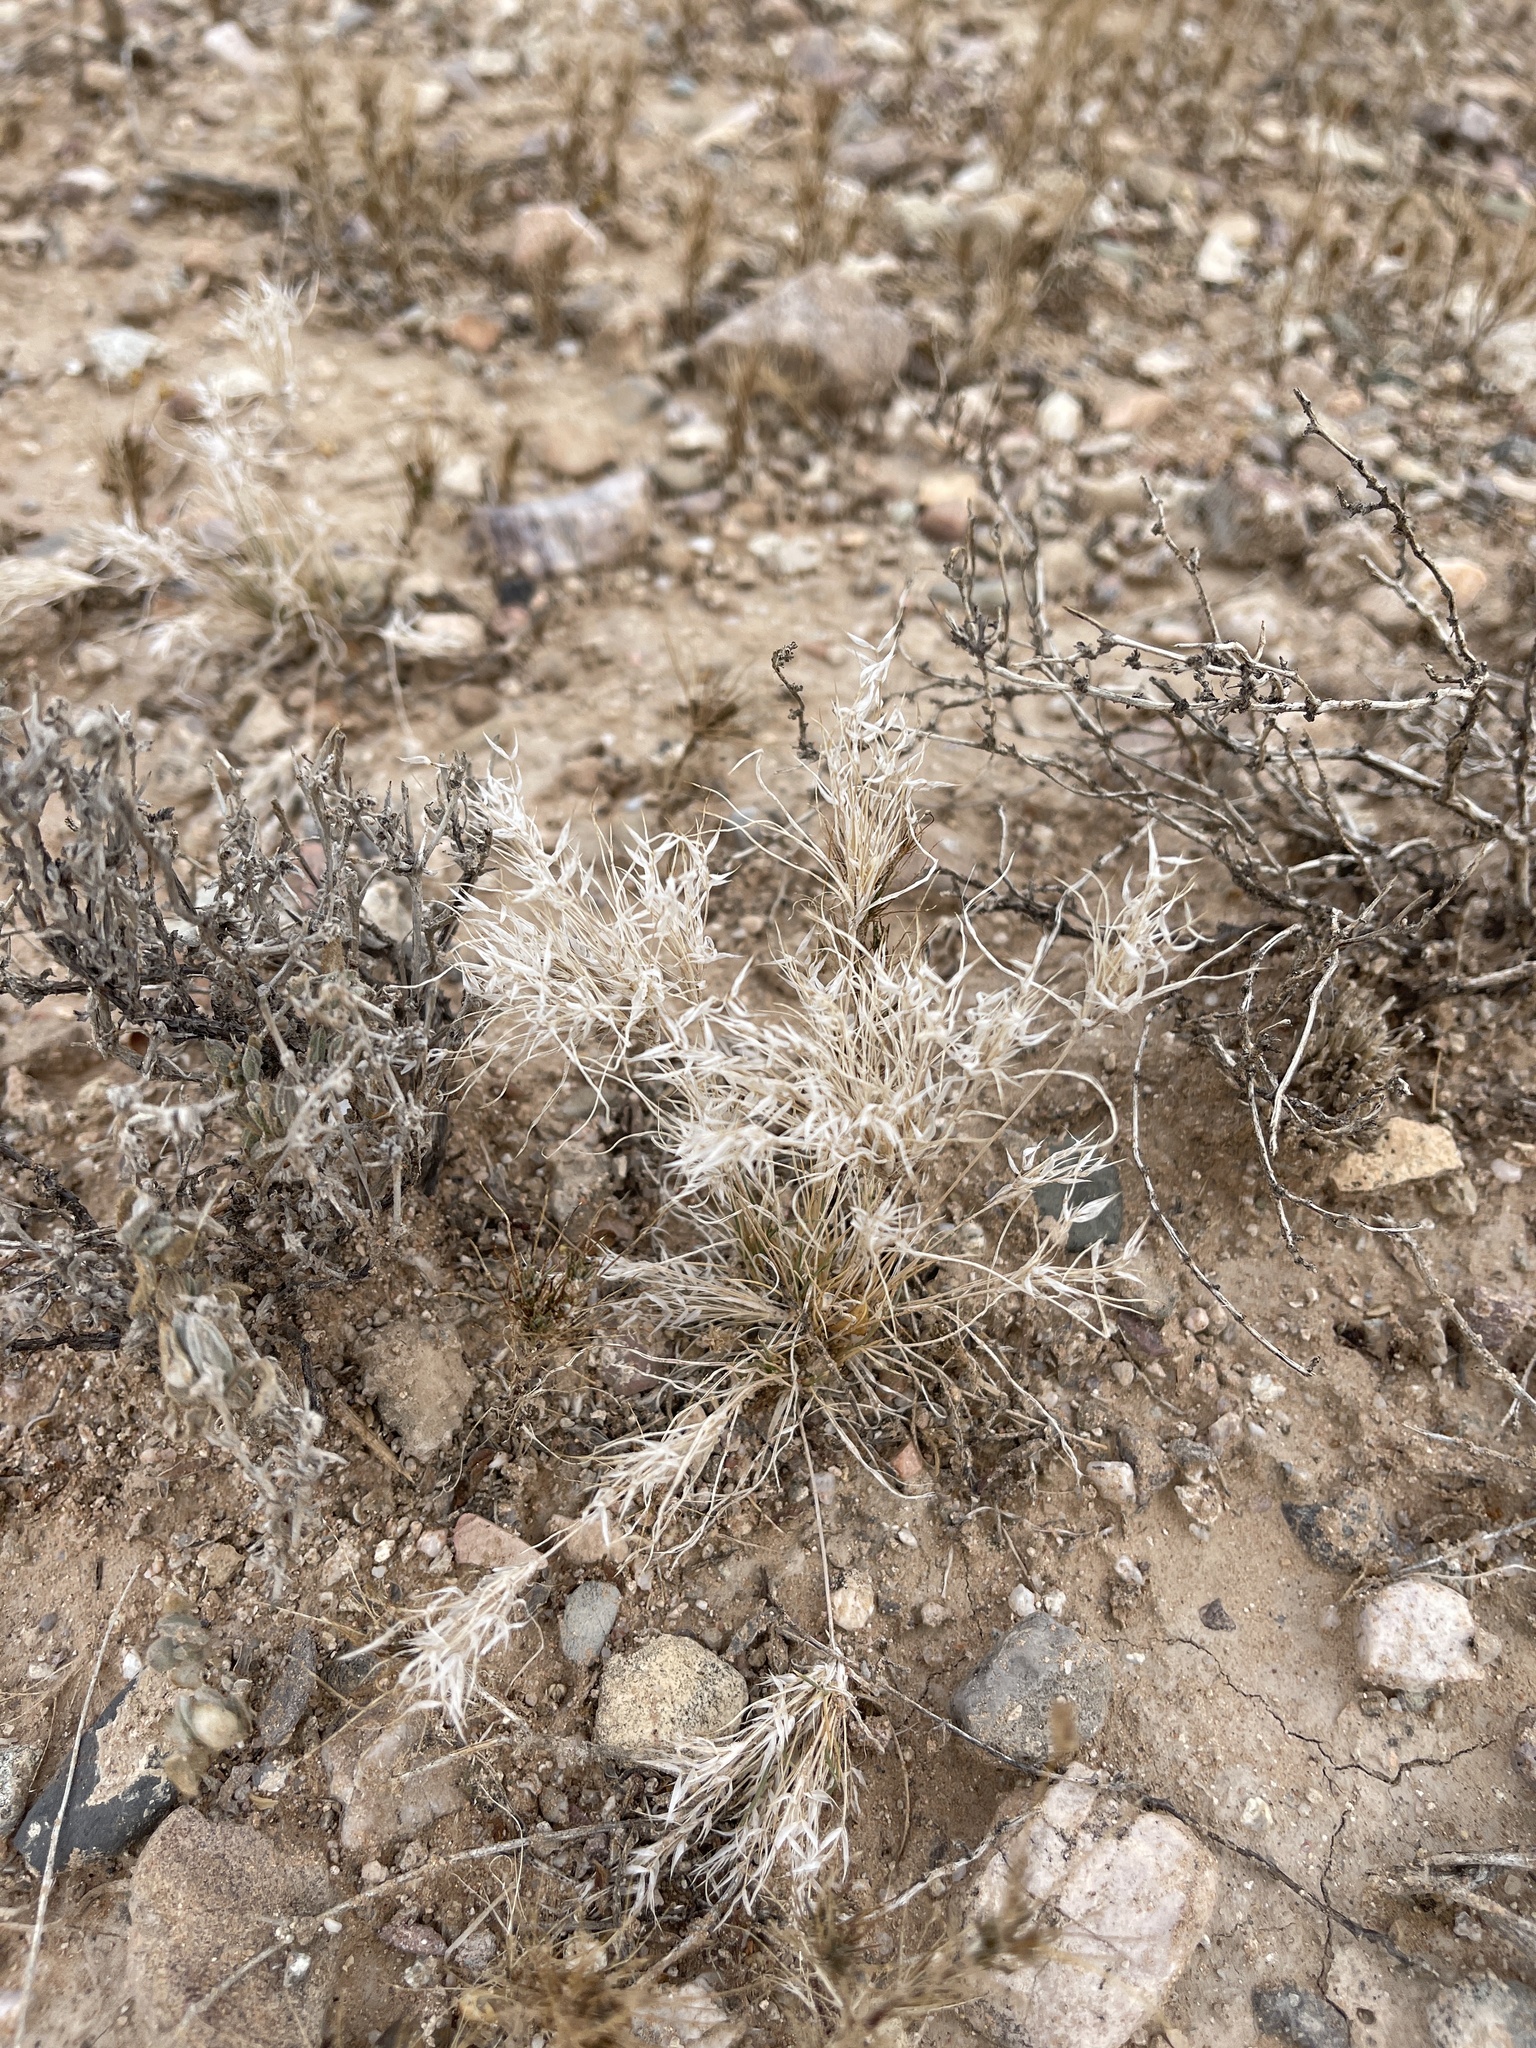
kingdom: Plantae
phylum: Tracheophyta
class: Liliopsida
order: Poales
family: Poaceae
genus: Dasyochloa
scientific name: Dasyochloa pulchella
